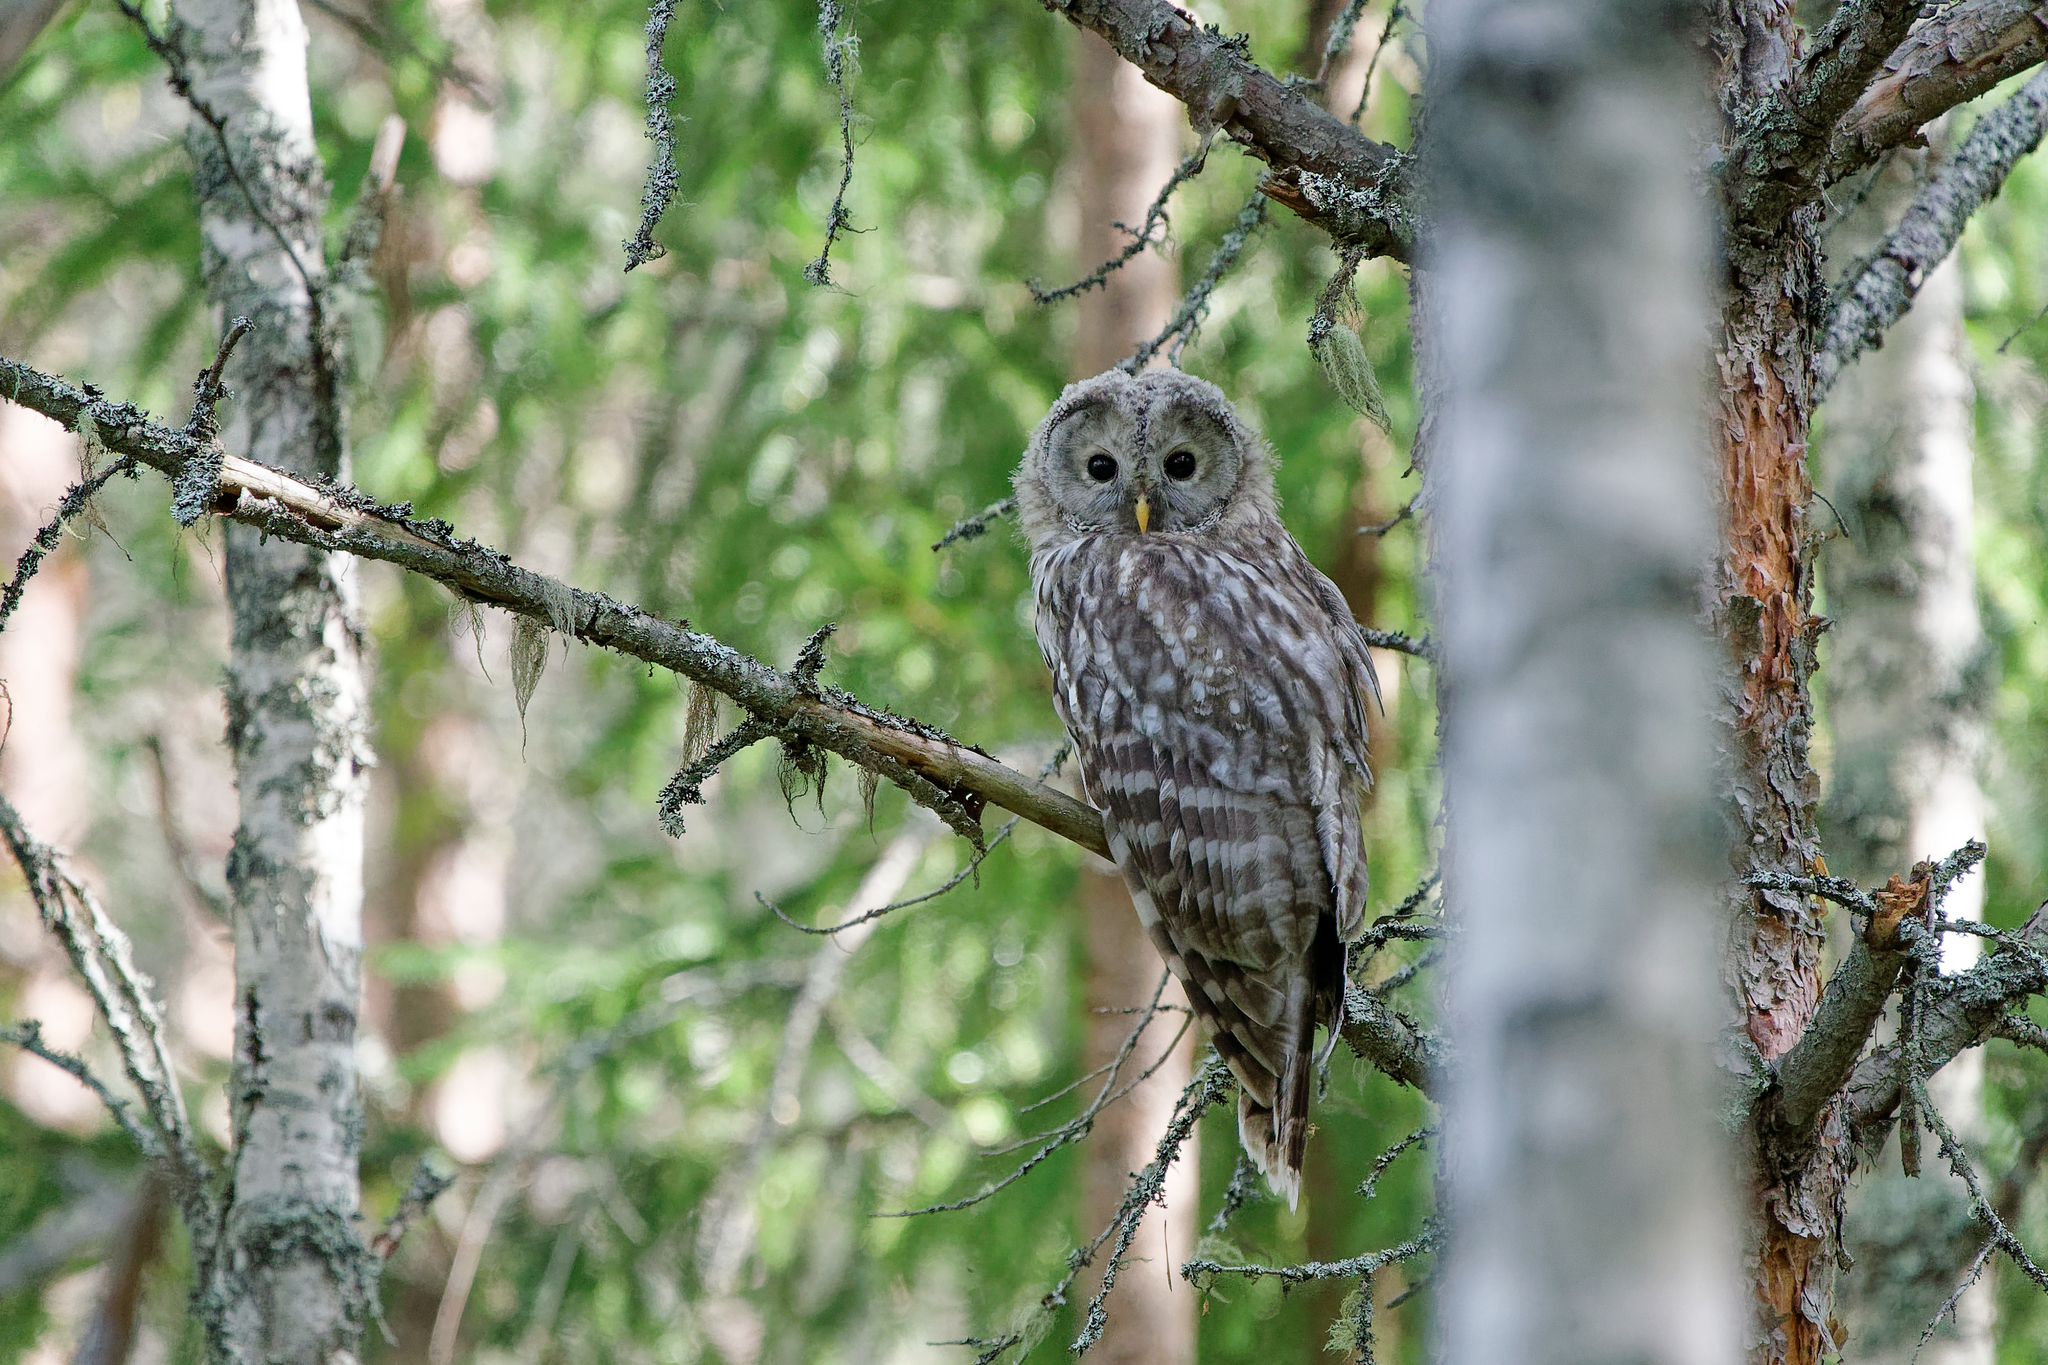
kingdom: Animalia
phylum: Chordata
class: Aves
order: Strigiformes
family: Strigidae
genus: Strix
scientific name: Strix uralensis
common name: Ural owl
